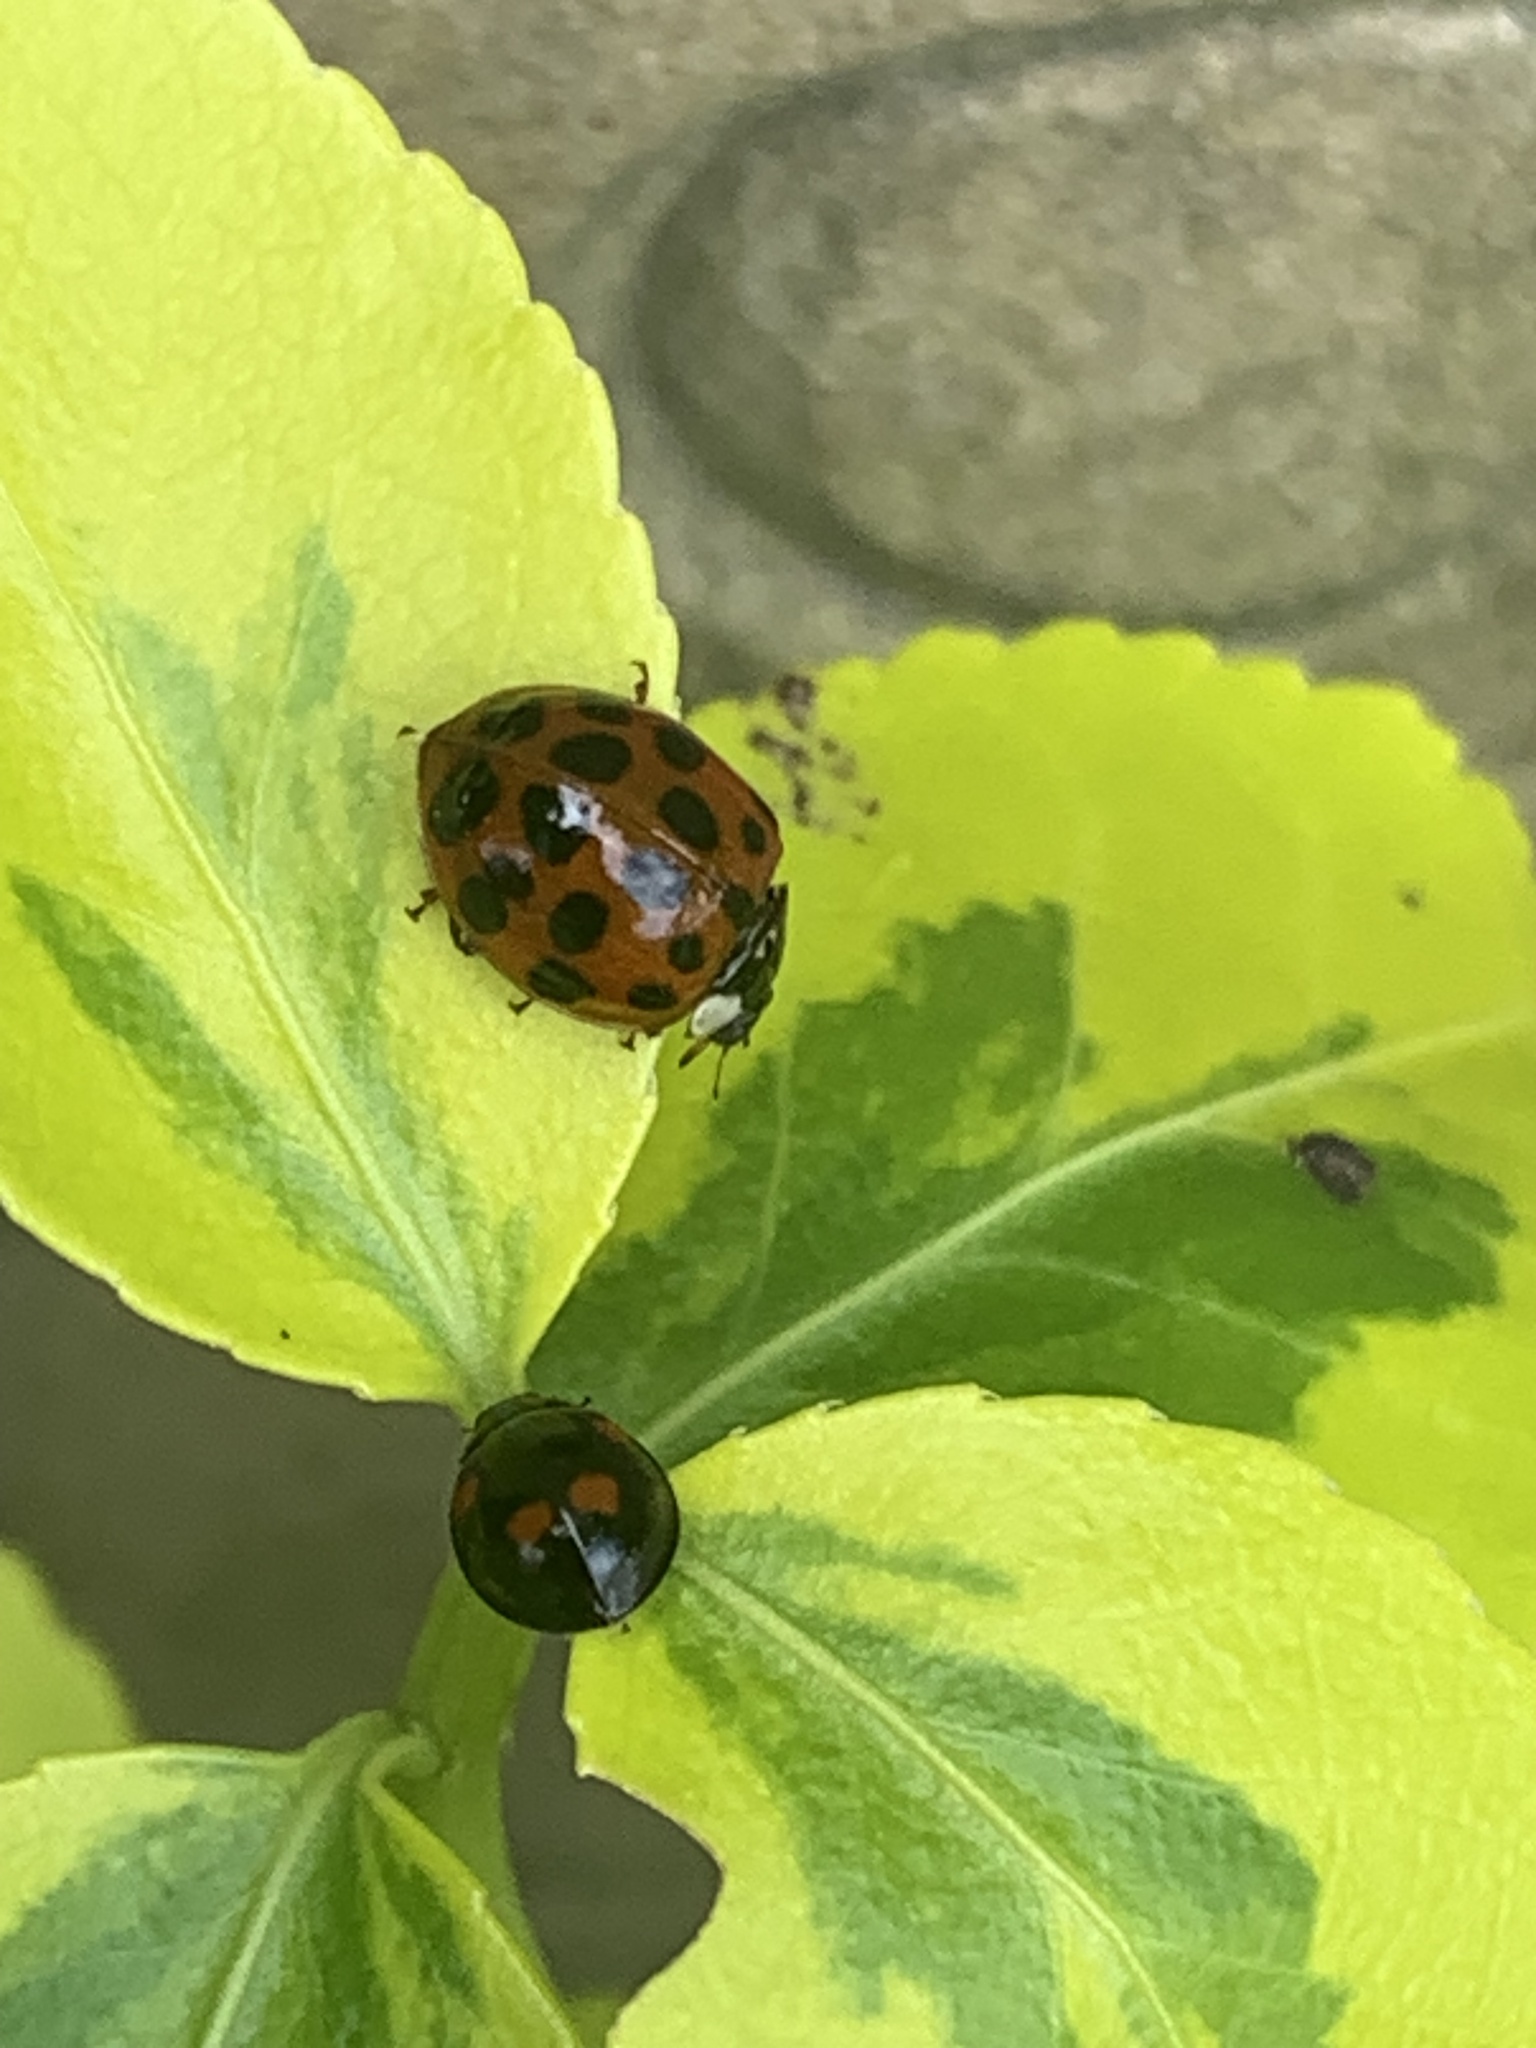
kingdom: Animalia
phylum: Arthropoda
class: Insecta
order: Coleoptera
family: Coccinellidae
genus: Harmonia
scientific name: Harmonia axyridis
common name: Harlequin ladybird
